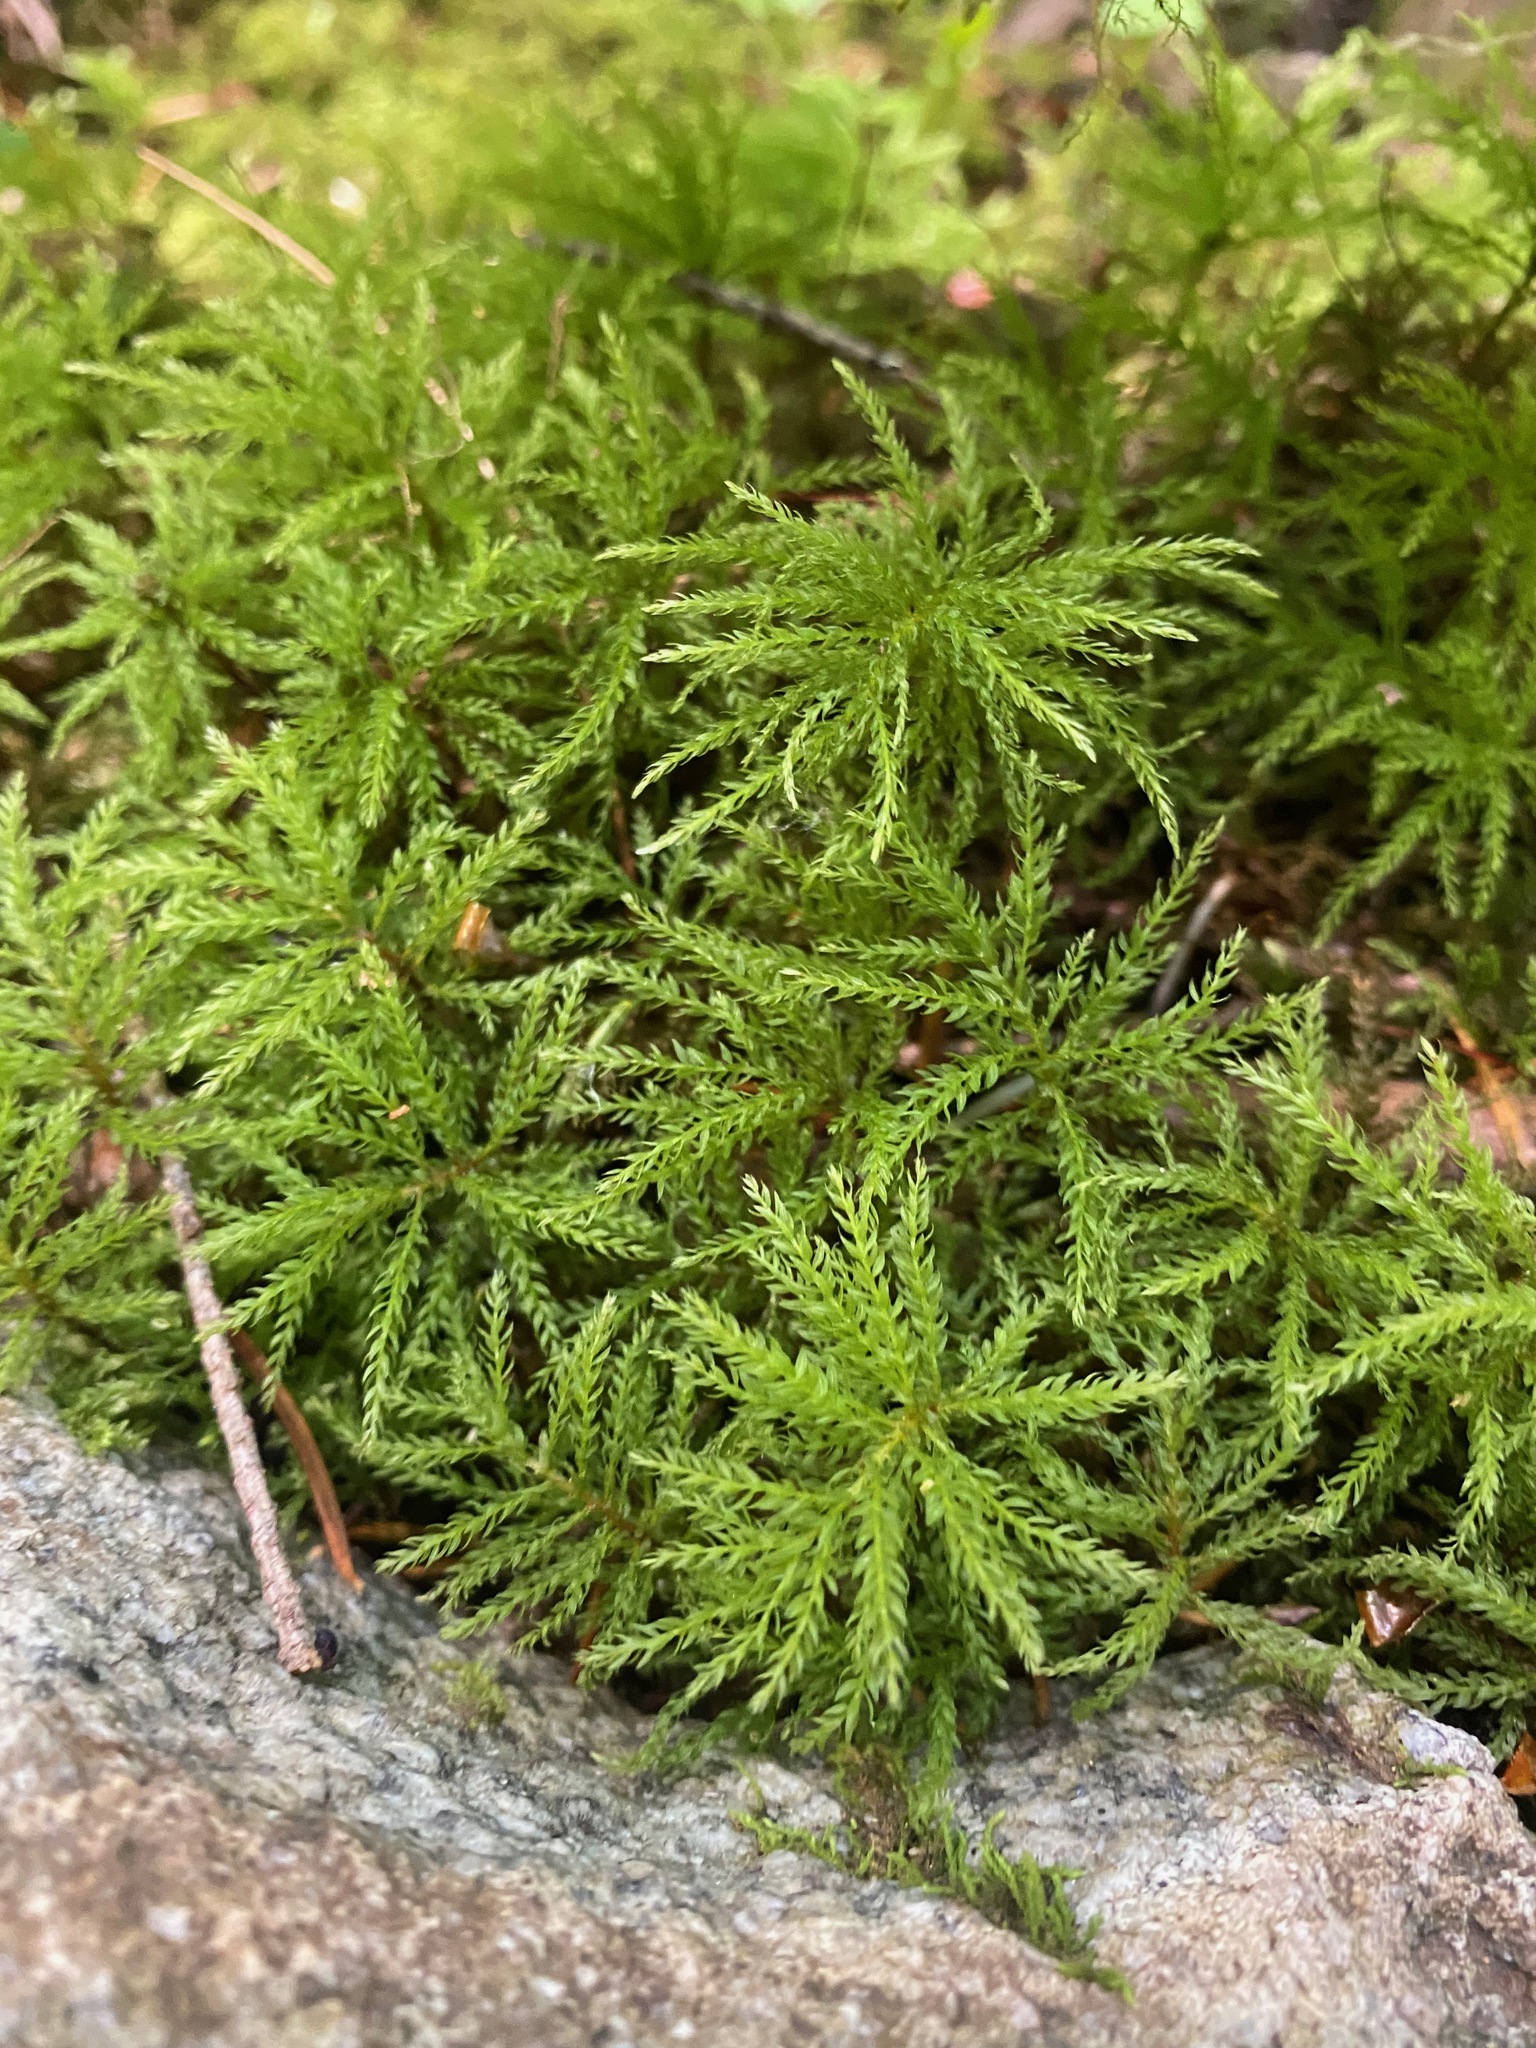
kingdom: Plantae
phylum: Bryophyta
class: Bryopsida
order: Bryales
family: Mniaceae
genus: Leucolepis
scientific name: Leucolepis acanthoneura
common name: Leucolepis umbrella moss
